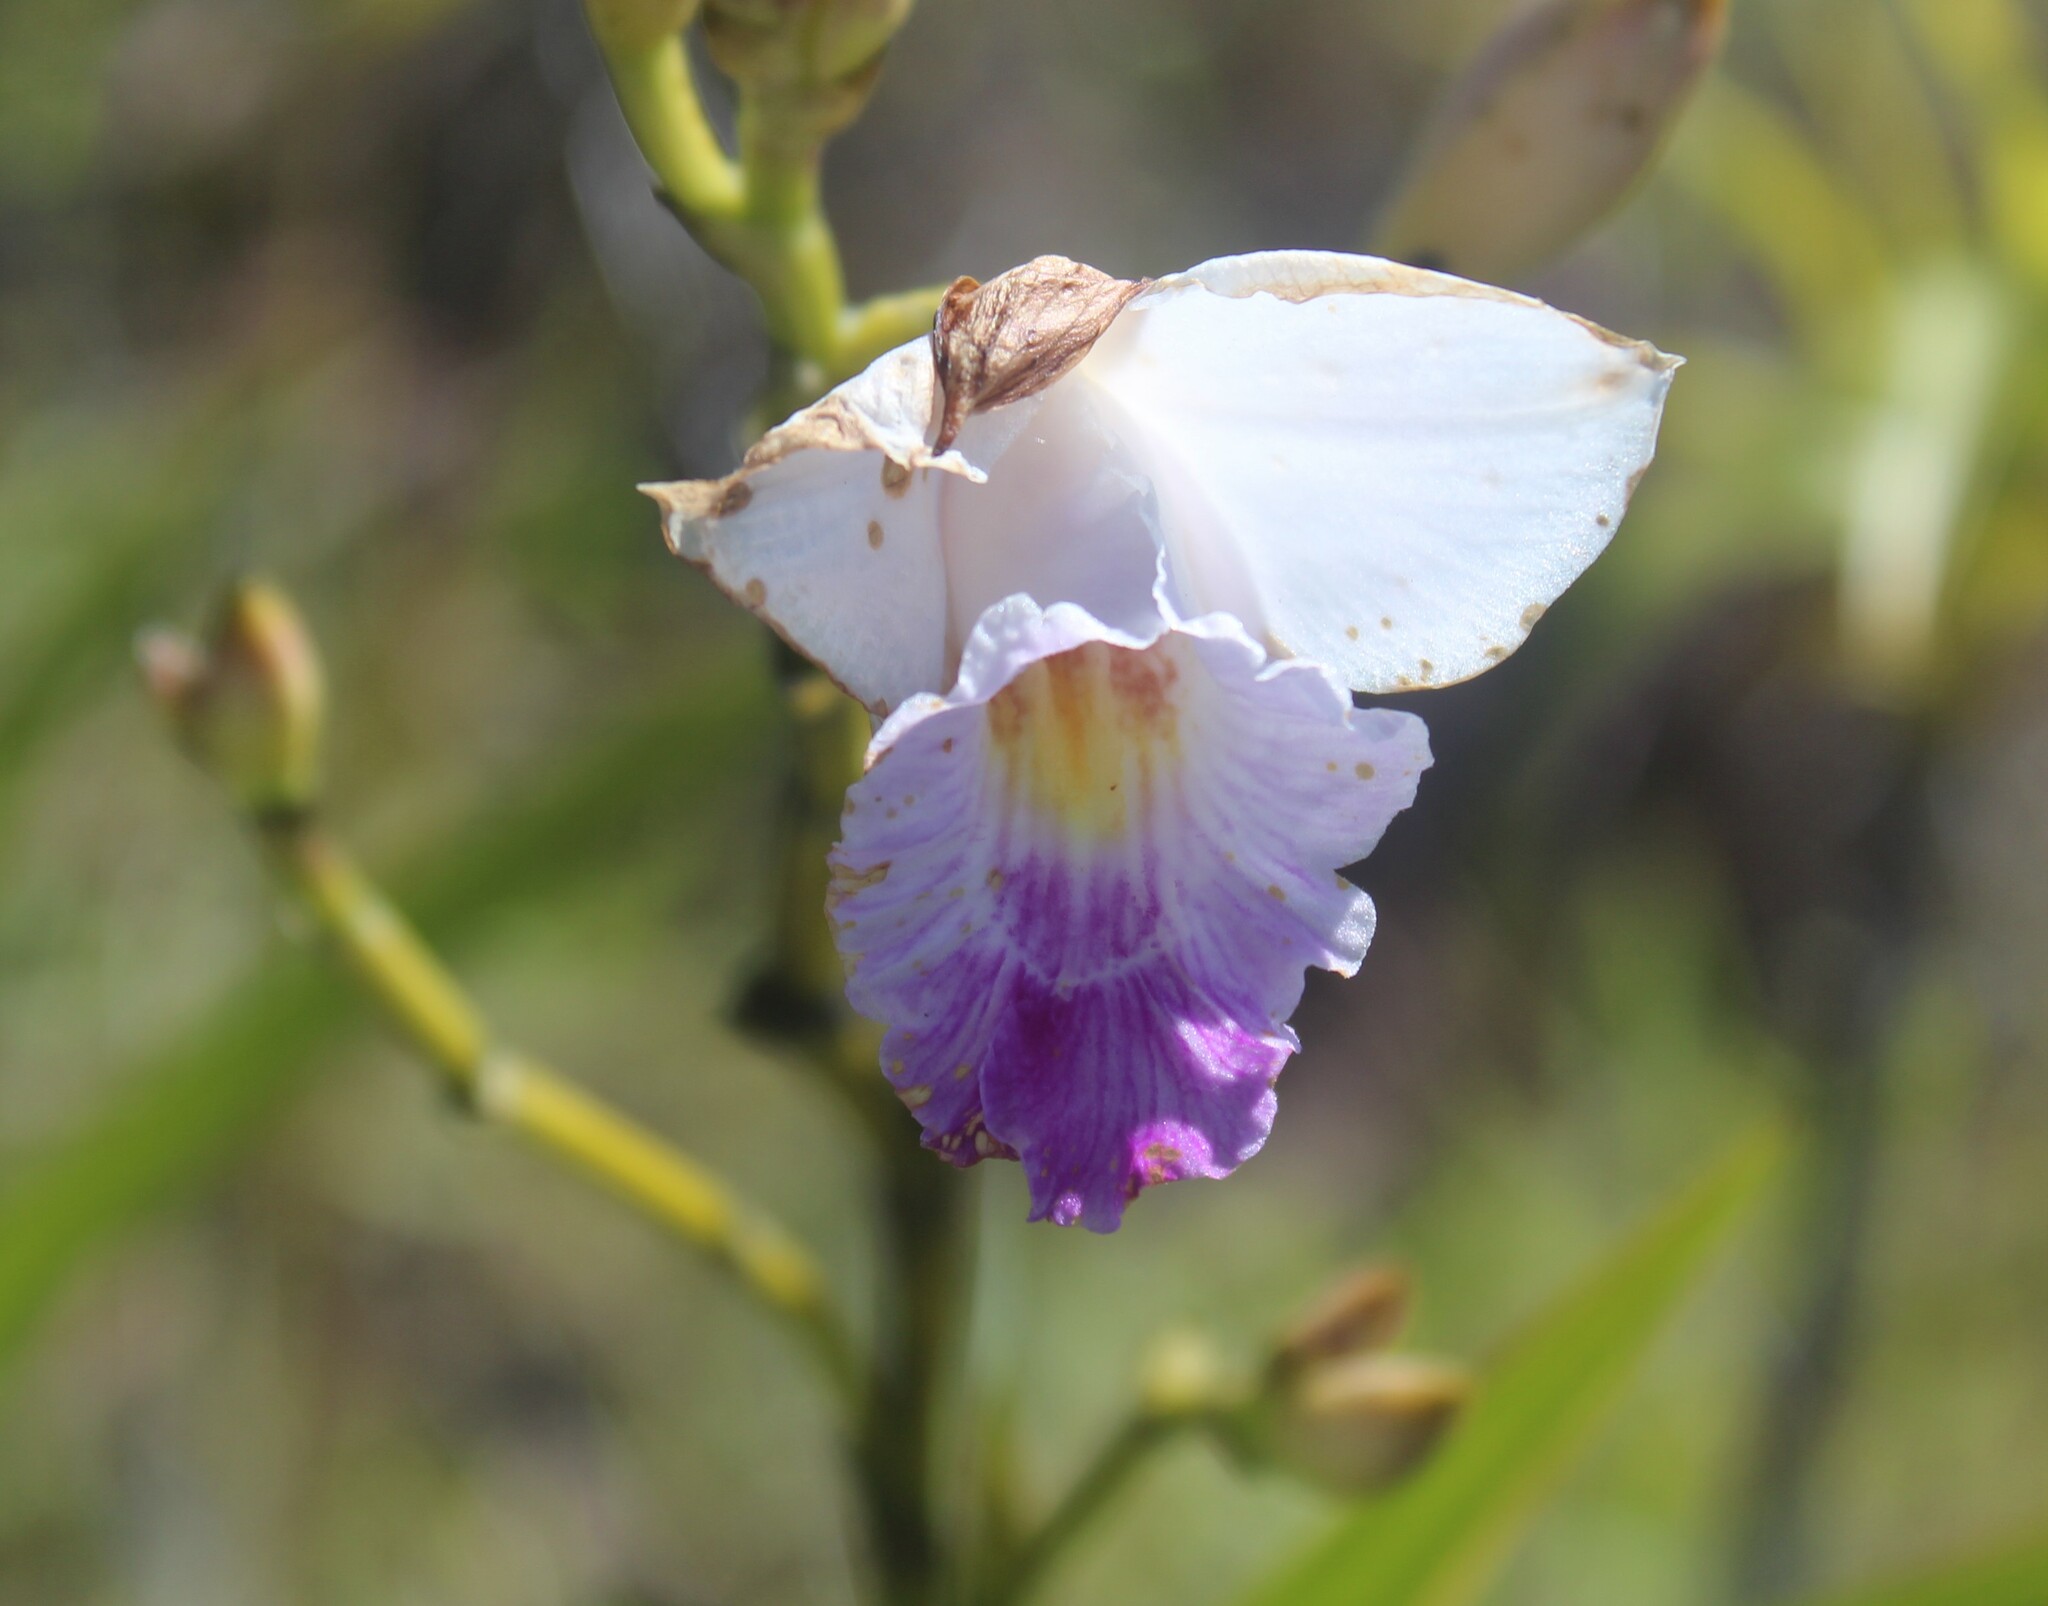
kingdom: Plantae
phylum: Tracheophyta
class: Liliopsida
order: Asparagales
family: Orchidaceae
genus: Arundina
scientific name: Arundina graminifolia
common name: Bamboo orchid
